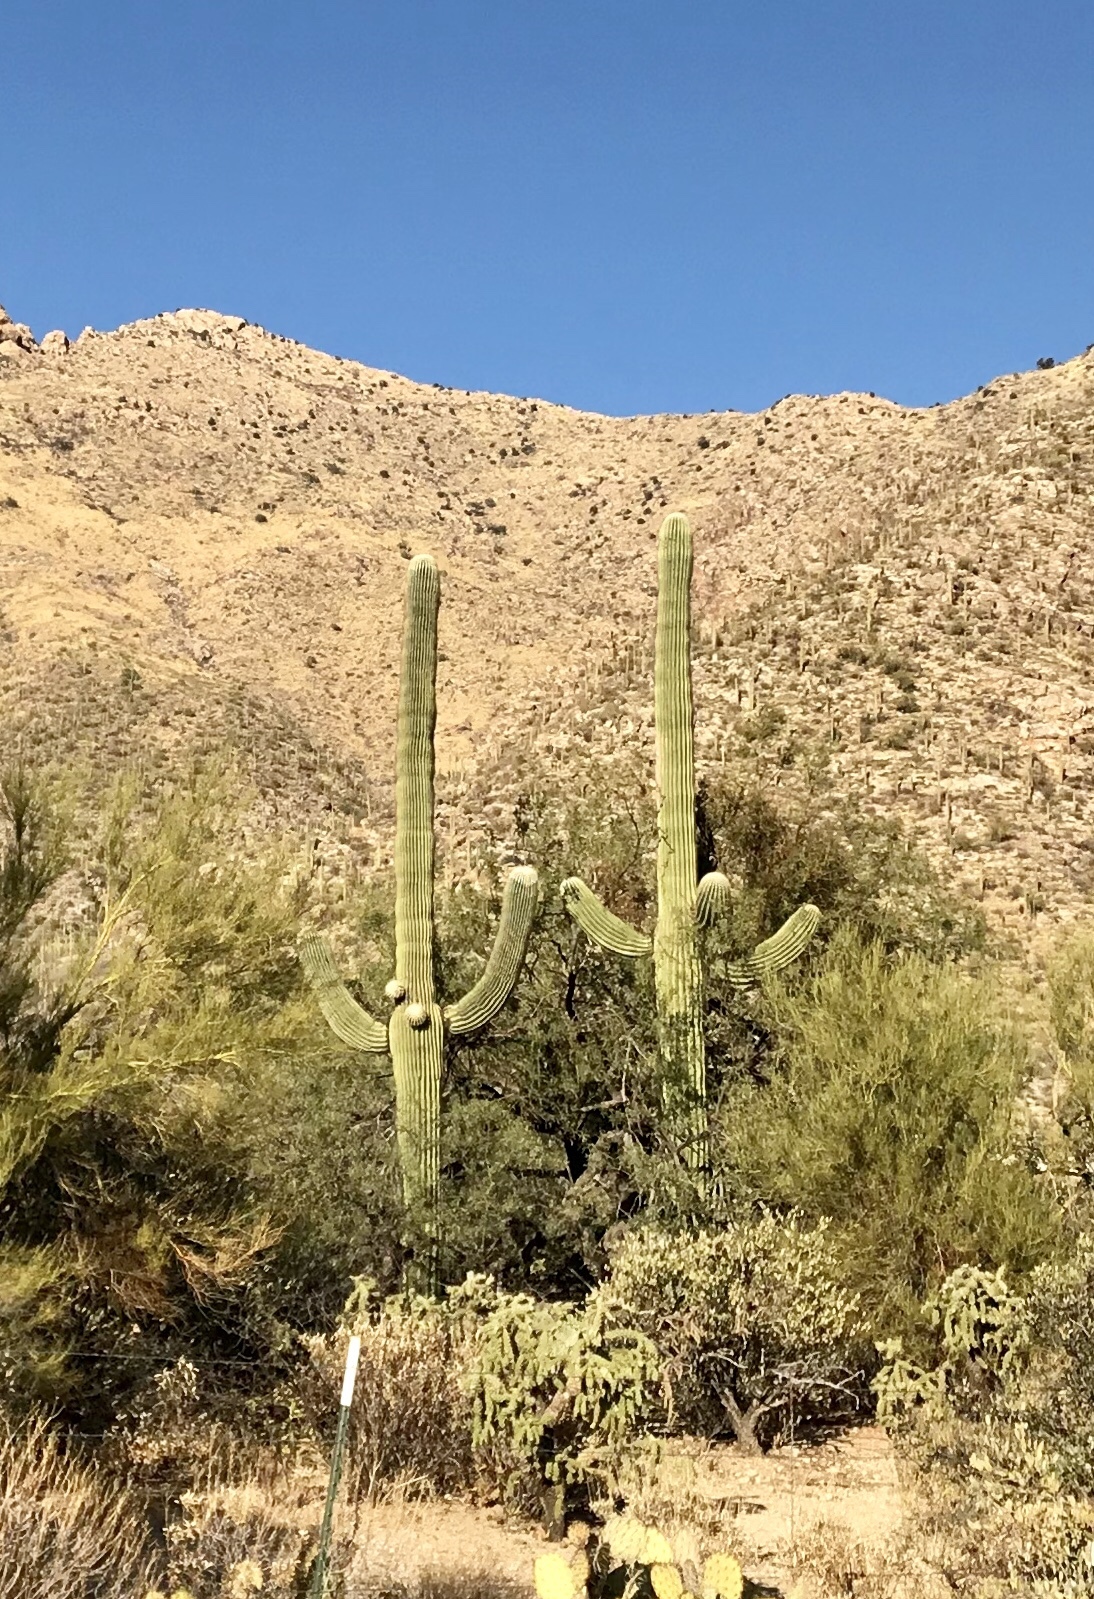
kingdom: Plantae
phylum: Tracheophyta
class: Magnoliopsida
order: Caryophyllales
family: Cactaceae
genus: Carnegiea
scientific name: Carnegiea gigantea
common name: Saguaro
